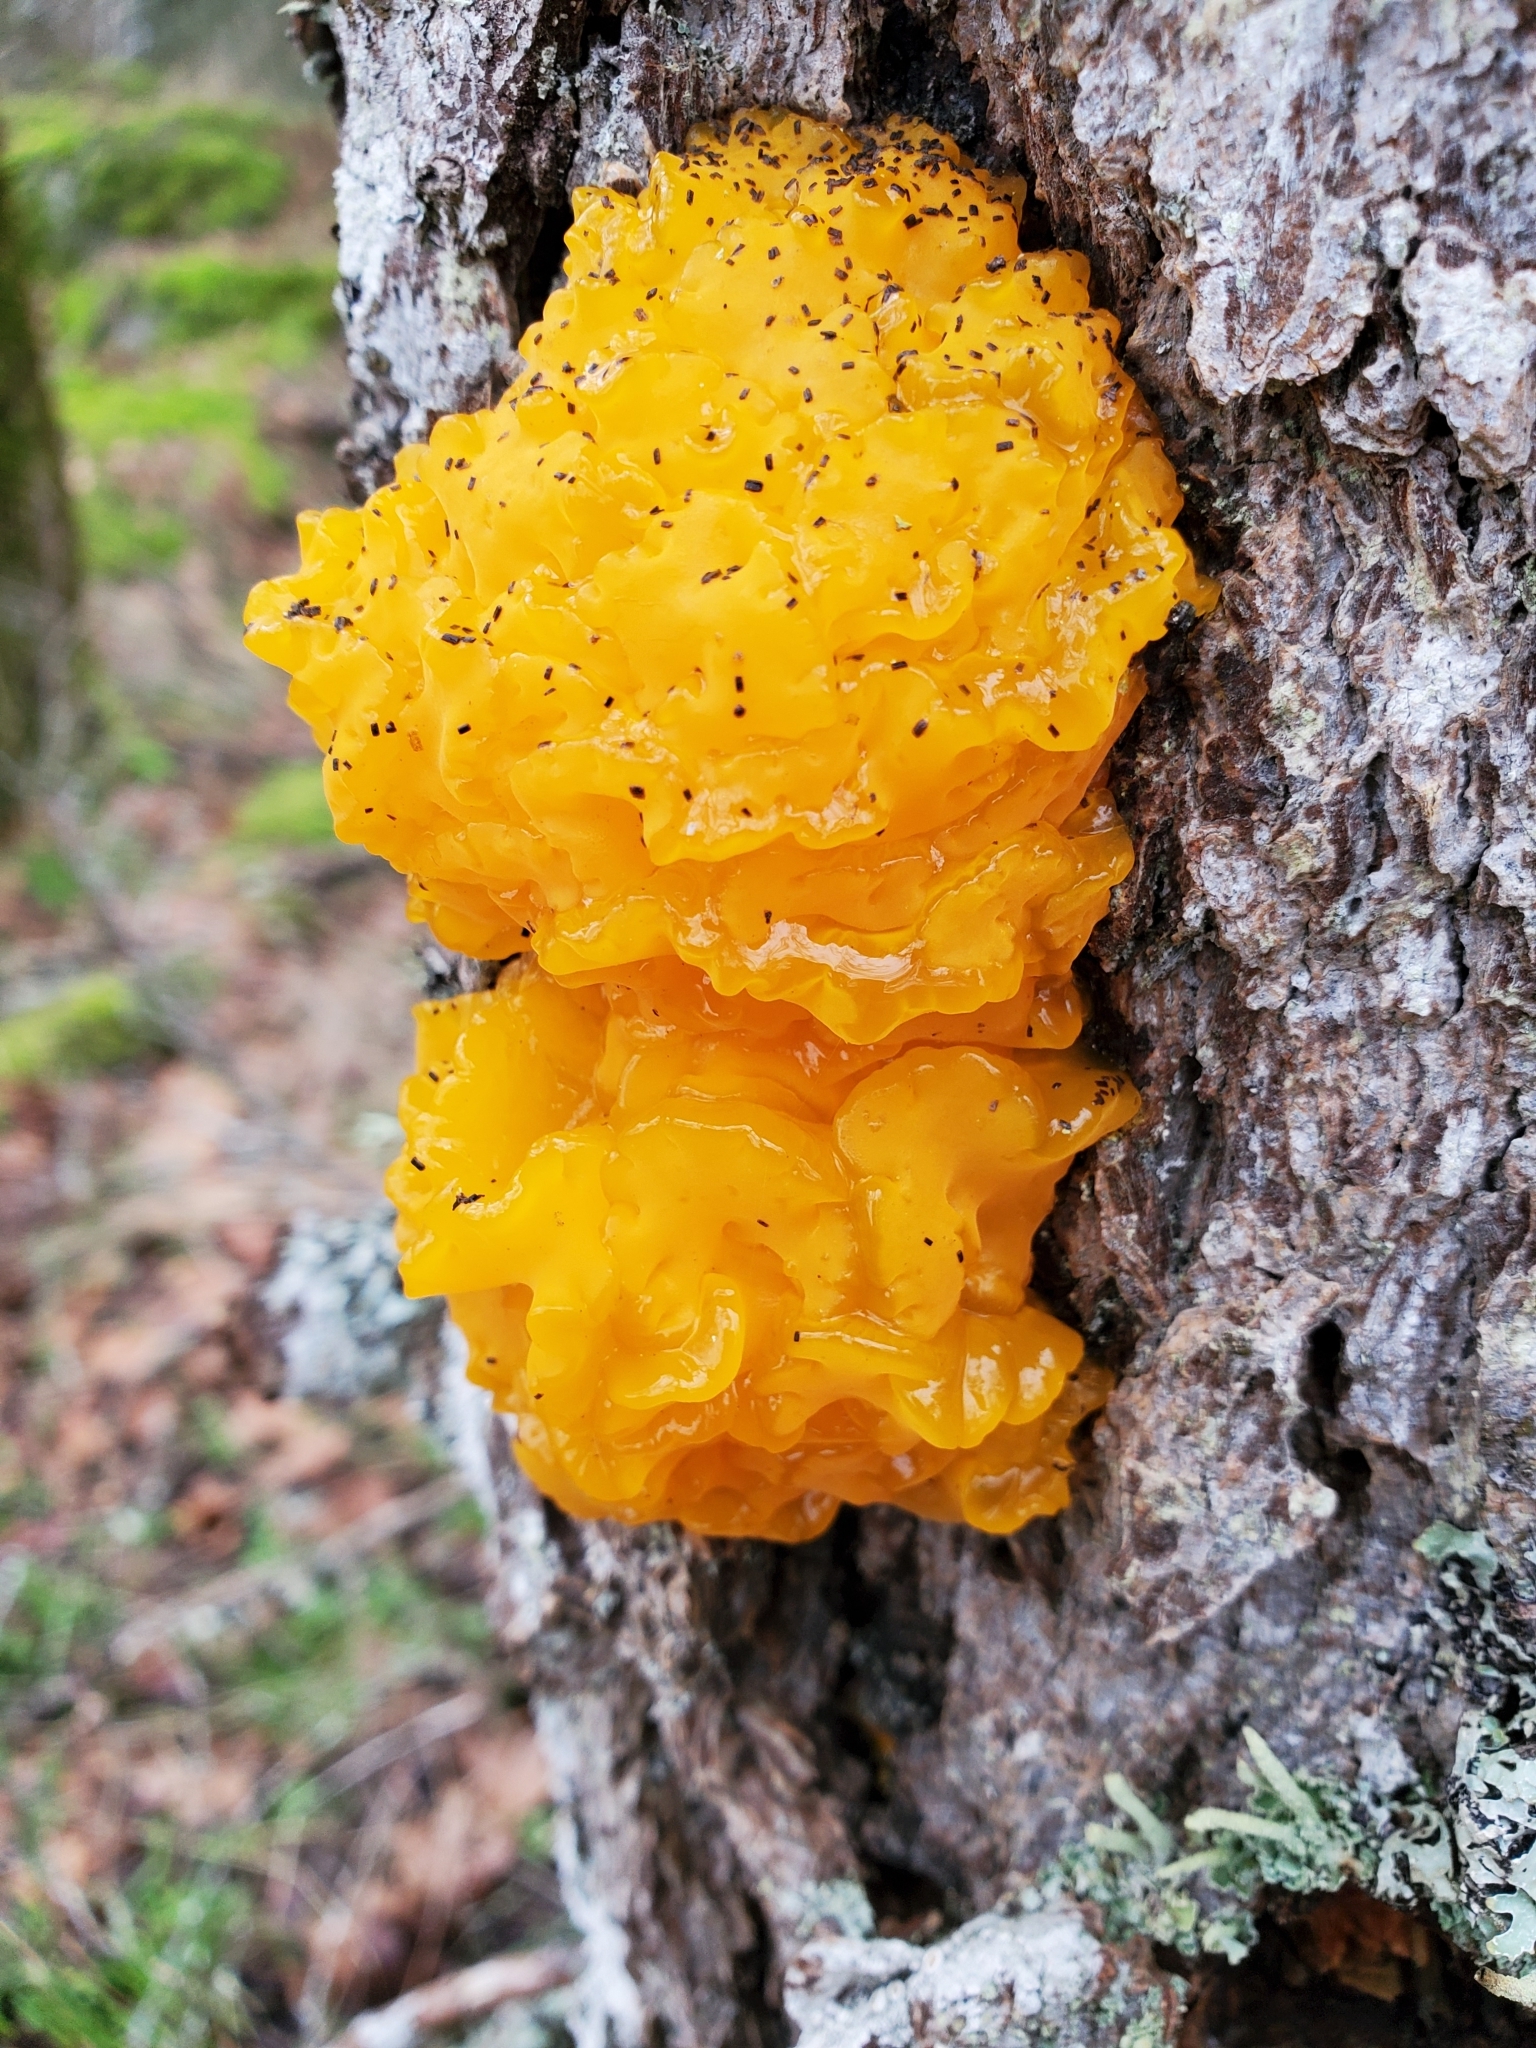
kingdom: Fungi
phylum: Basidiomycota
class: Dacrymycetes
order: Dacrymycetales
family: Dacrymycetaceae
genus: Dacrymyces
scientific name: Dacrymyces chrysospermus
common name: Orange jelly spot
